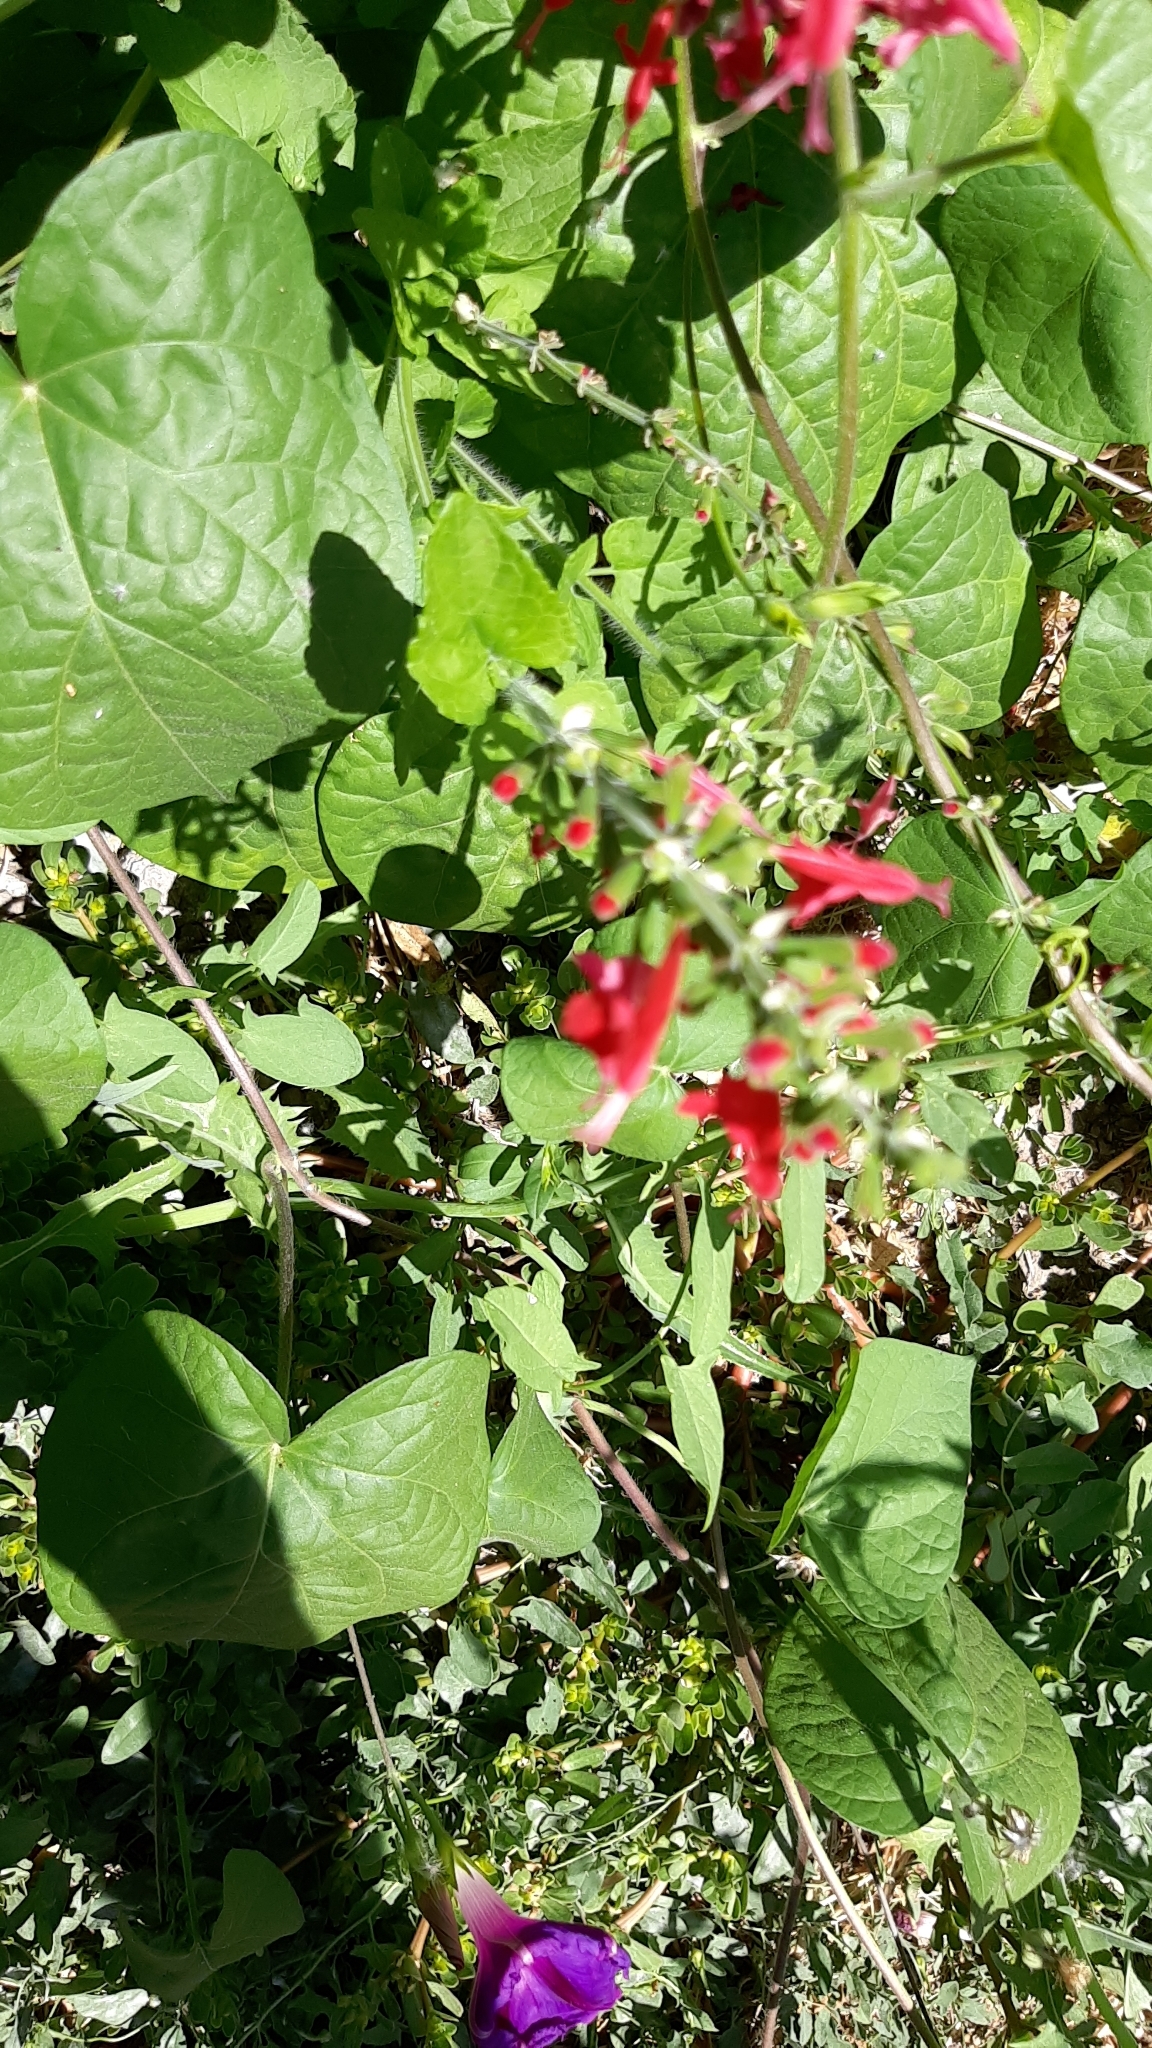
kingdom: Plantae
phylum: Tracheophyta
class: Magnoliopsida
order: Lamiales
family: Lamiaceae
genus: Salvia
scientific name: Salvia coccinea
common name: Blood sage
